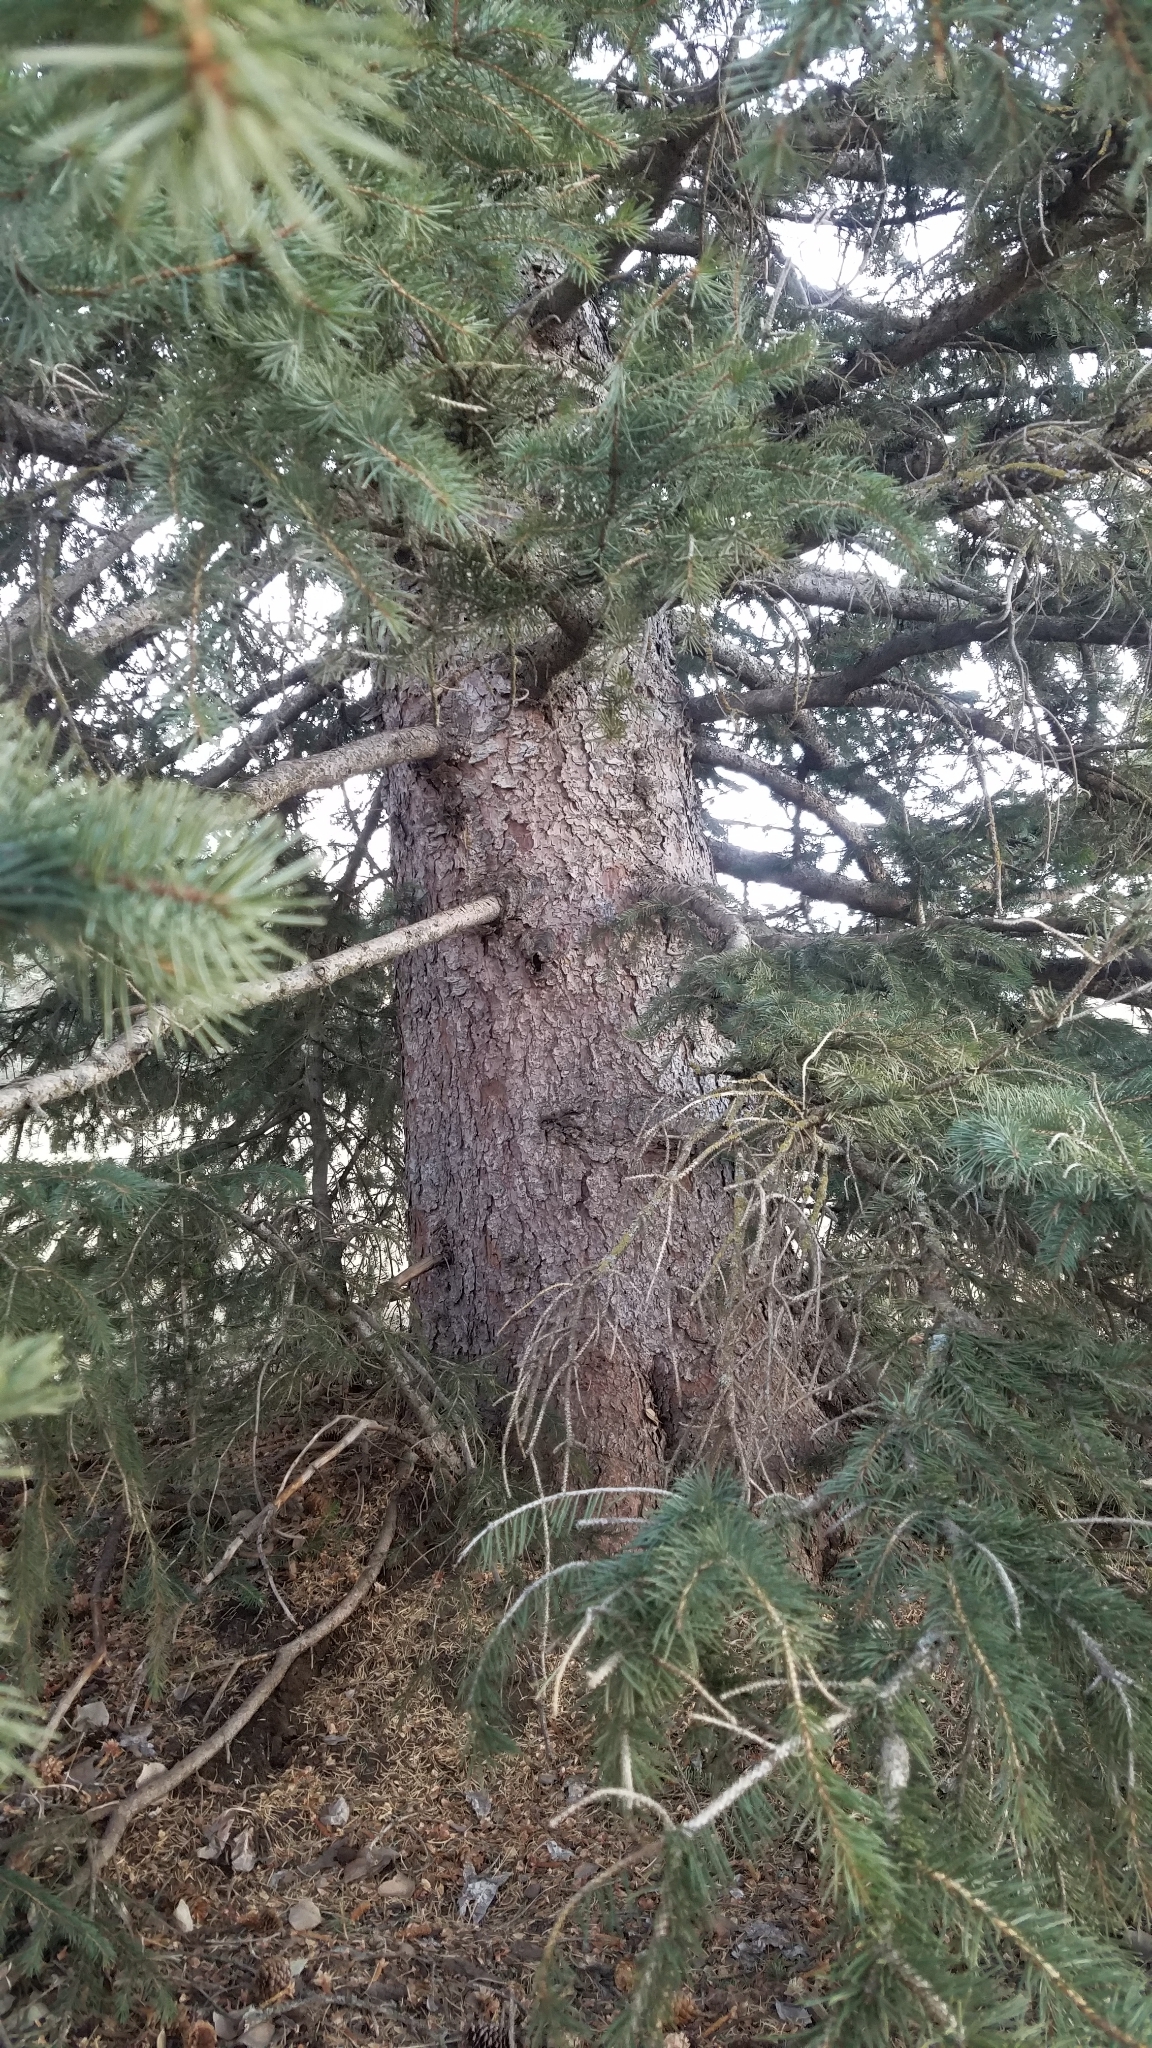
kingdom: Plantae
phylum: Tracheophyta
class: Pinopsida
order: Pinales
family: Pinaceae
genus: Picea
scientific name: Picea engelmannii
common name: Engelmann spruce
